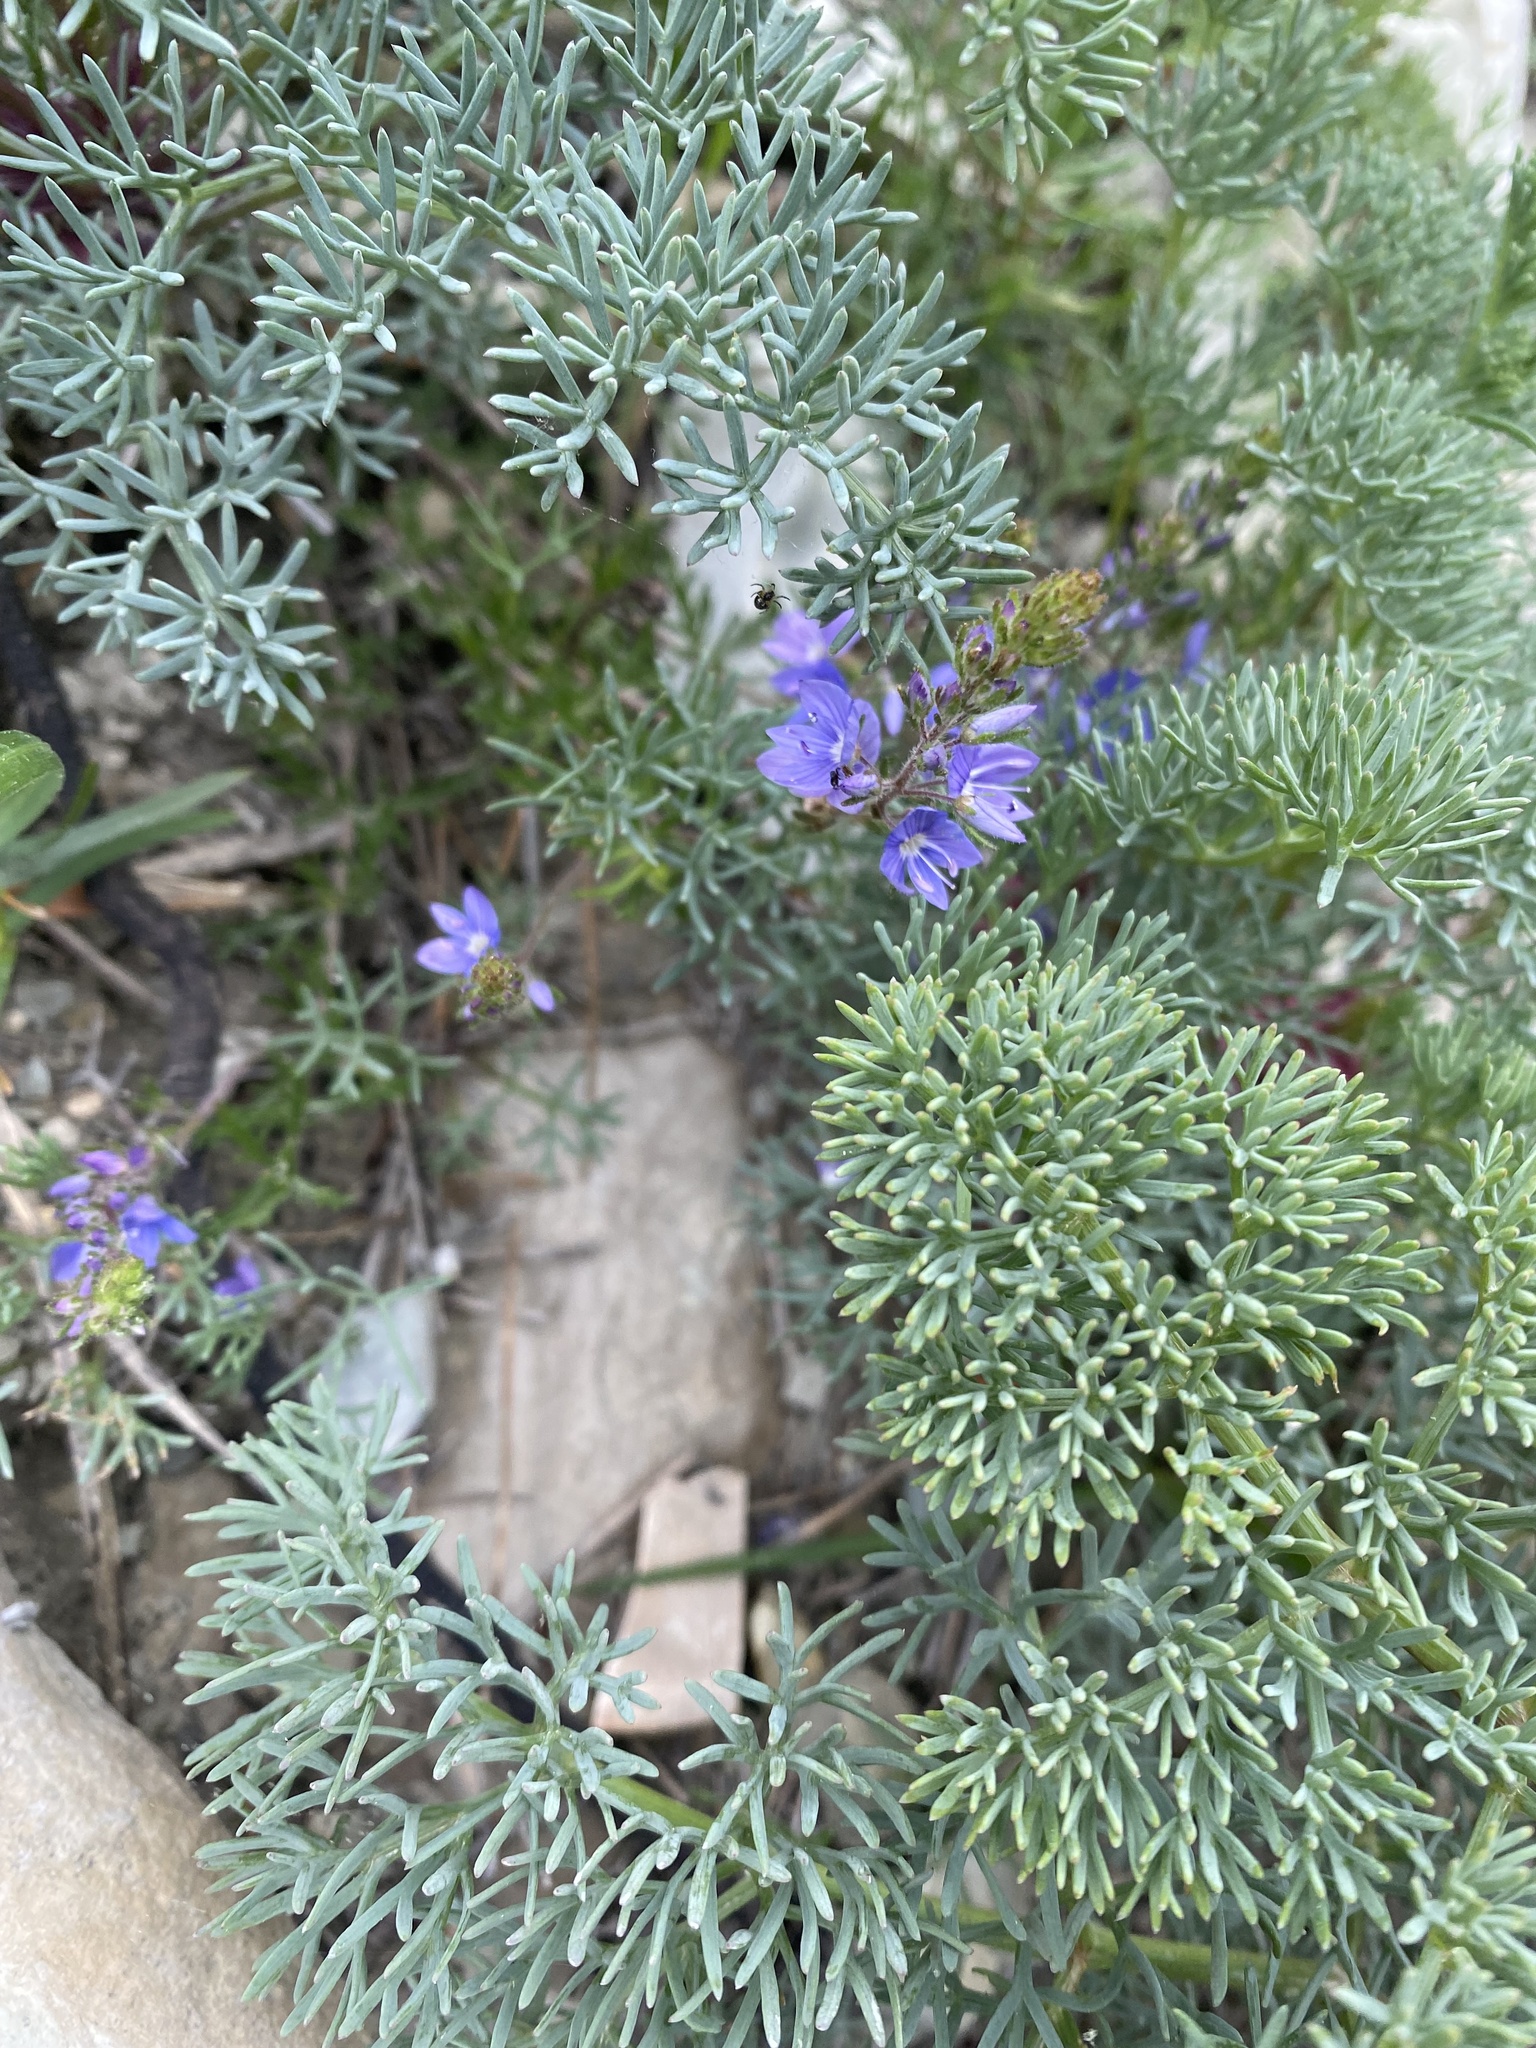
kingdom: Plantae
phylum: Tracheophyta
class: Magnoliopsida
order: Lamiales
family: Plantaginaceae
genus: Veronica
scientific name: Veronica capsellicarpa
